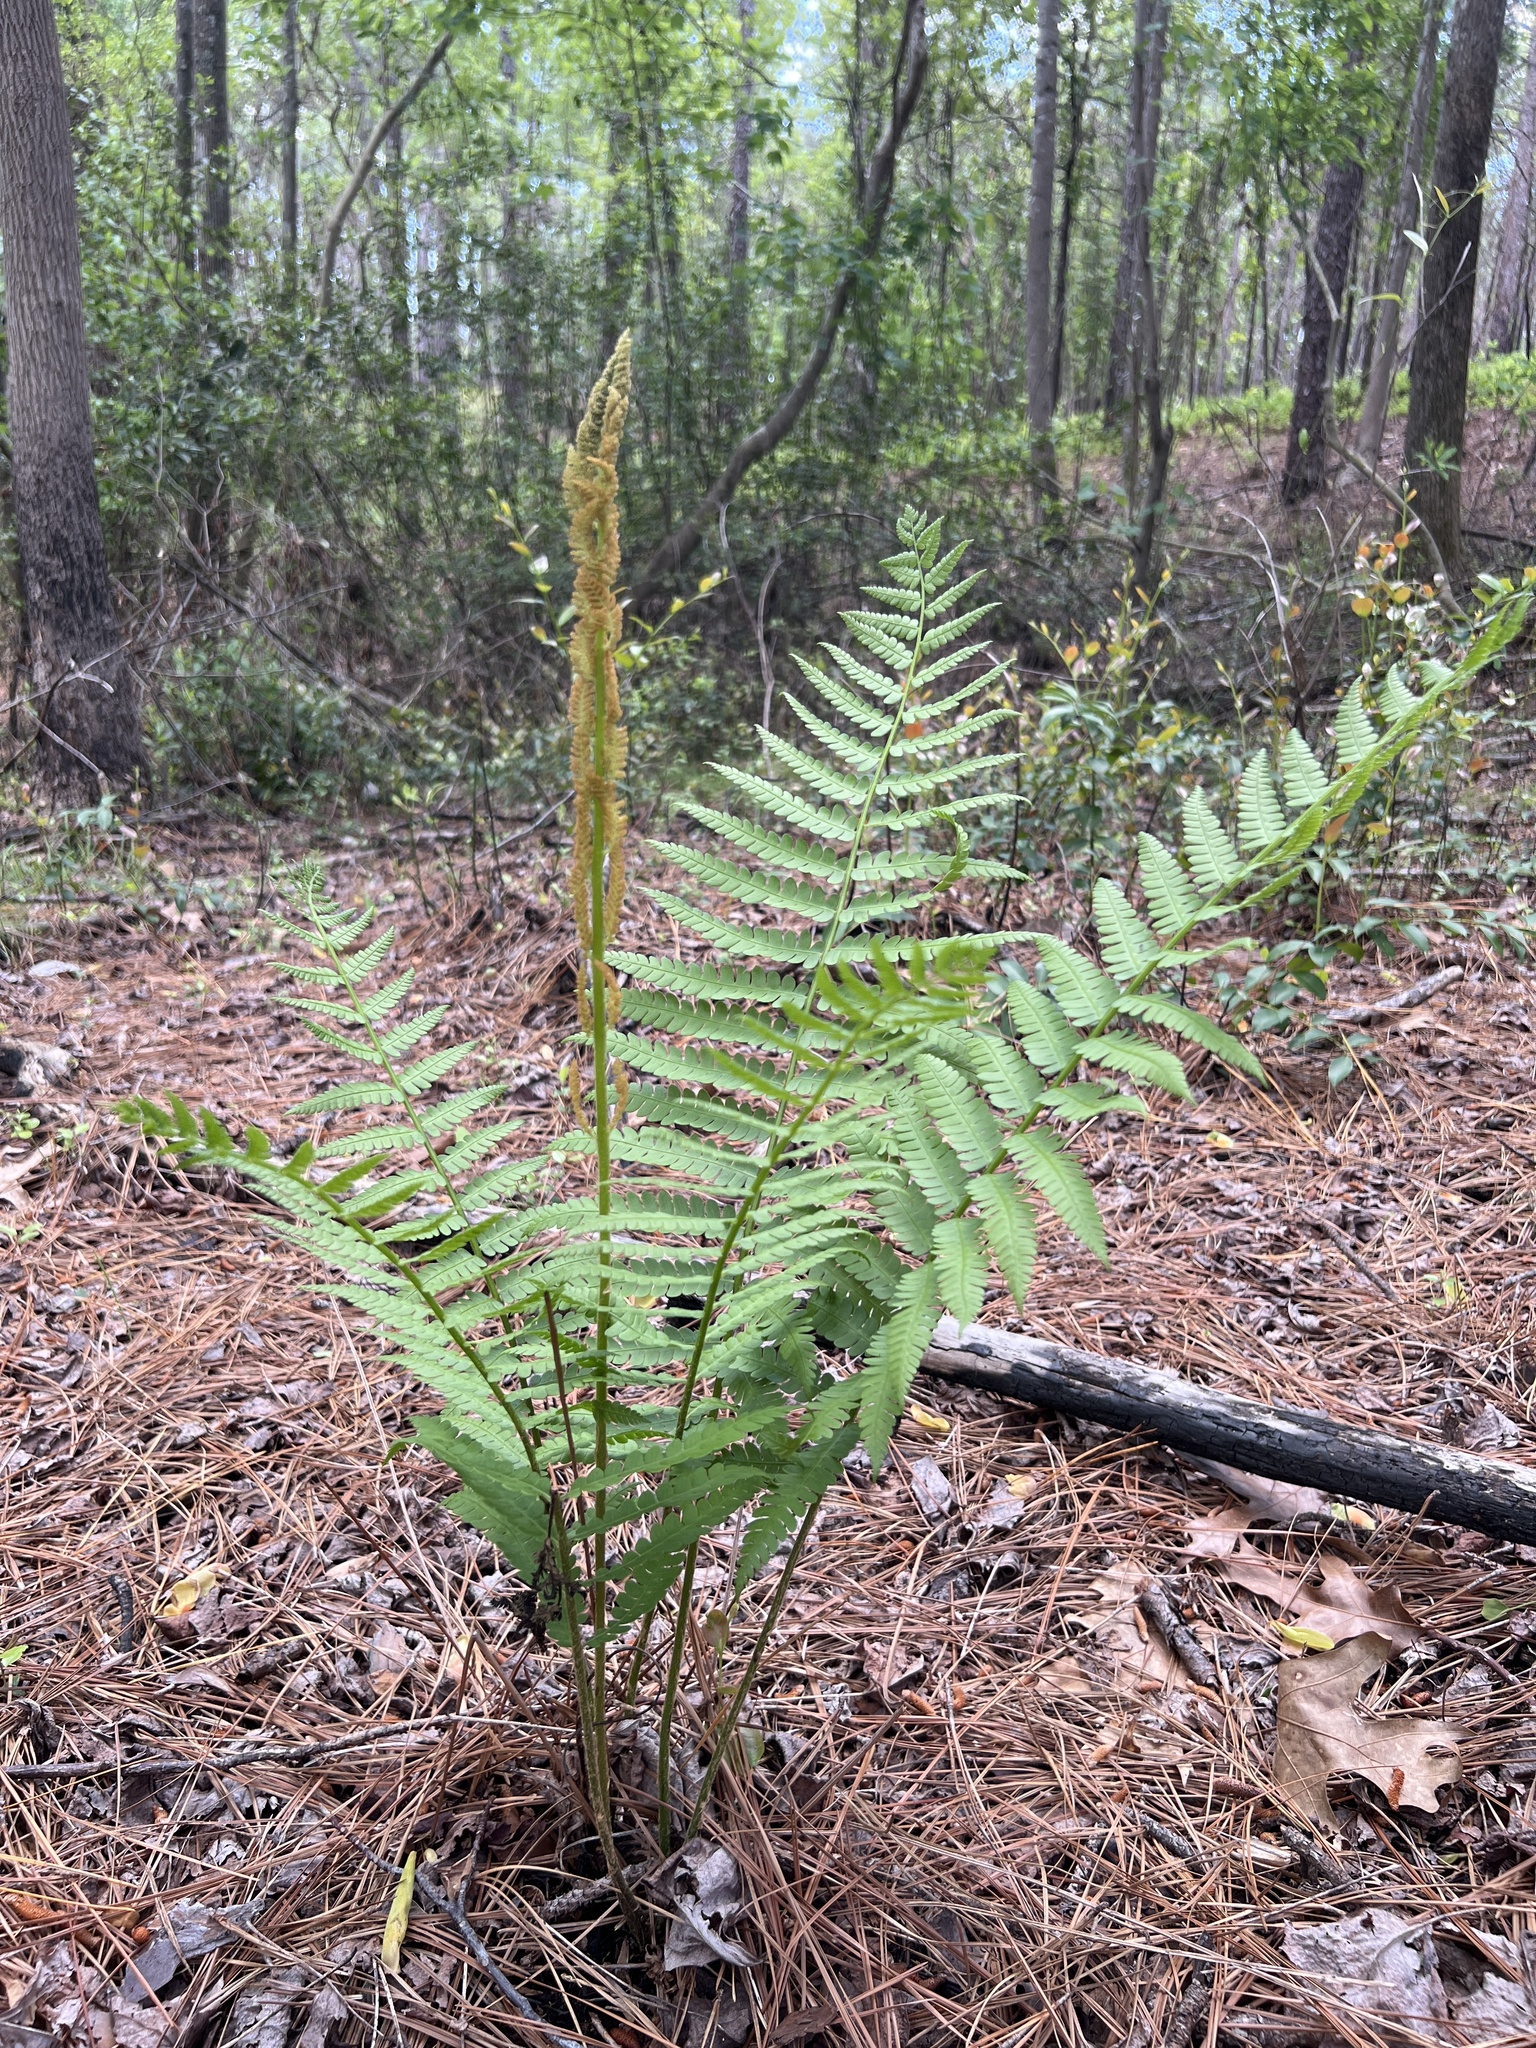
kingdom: Plantae
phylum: Tracheophyta
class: Polypodiopsida
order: Osmundales
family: Osmundaceae
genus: Osmundastrum
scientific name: Osmundastrum cinnamomeum
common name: Cinnamon fern
